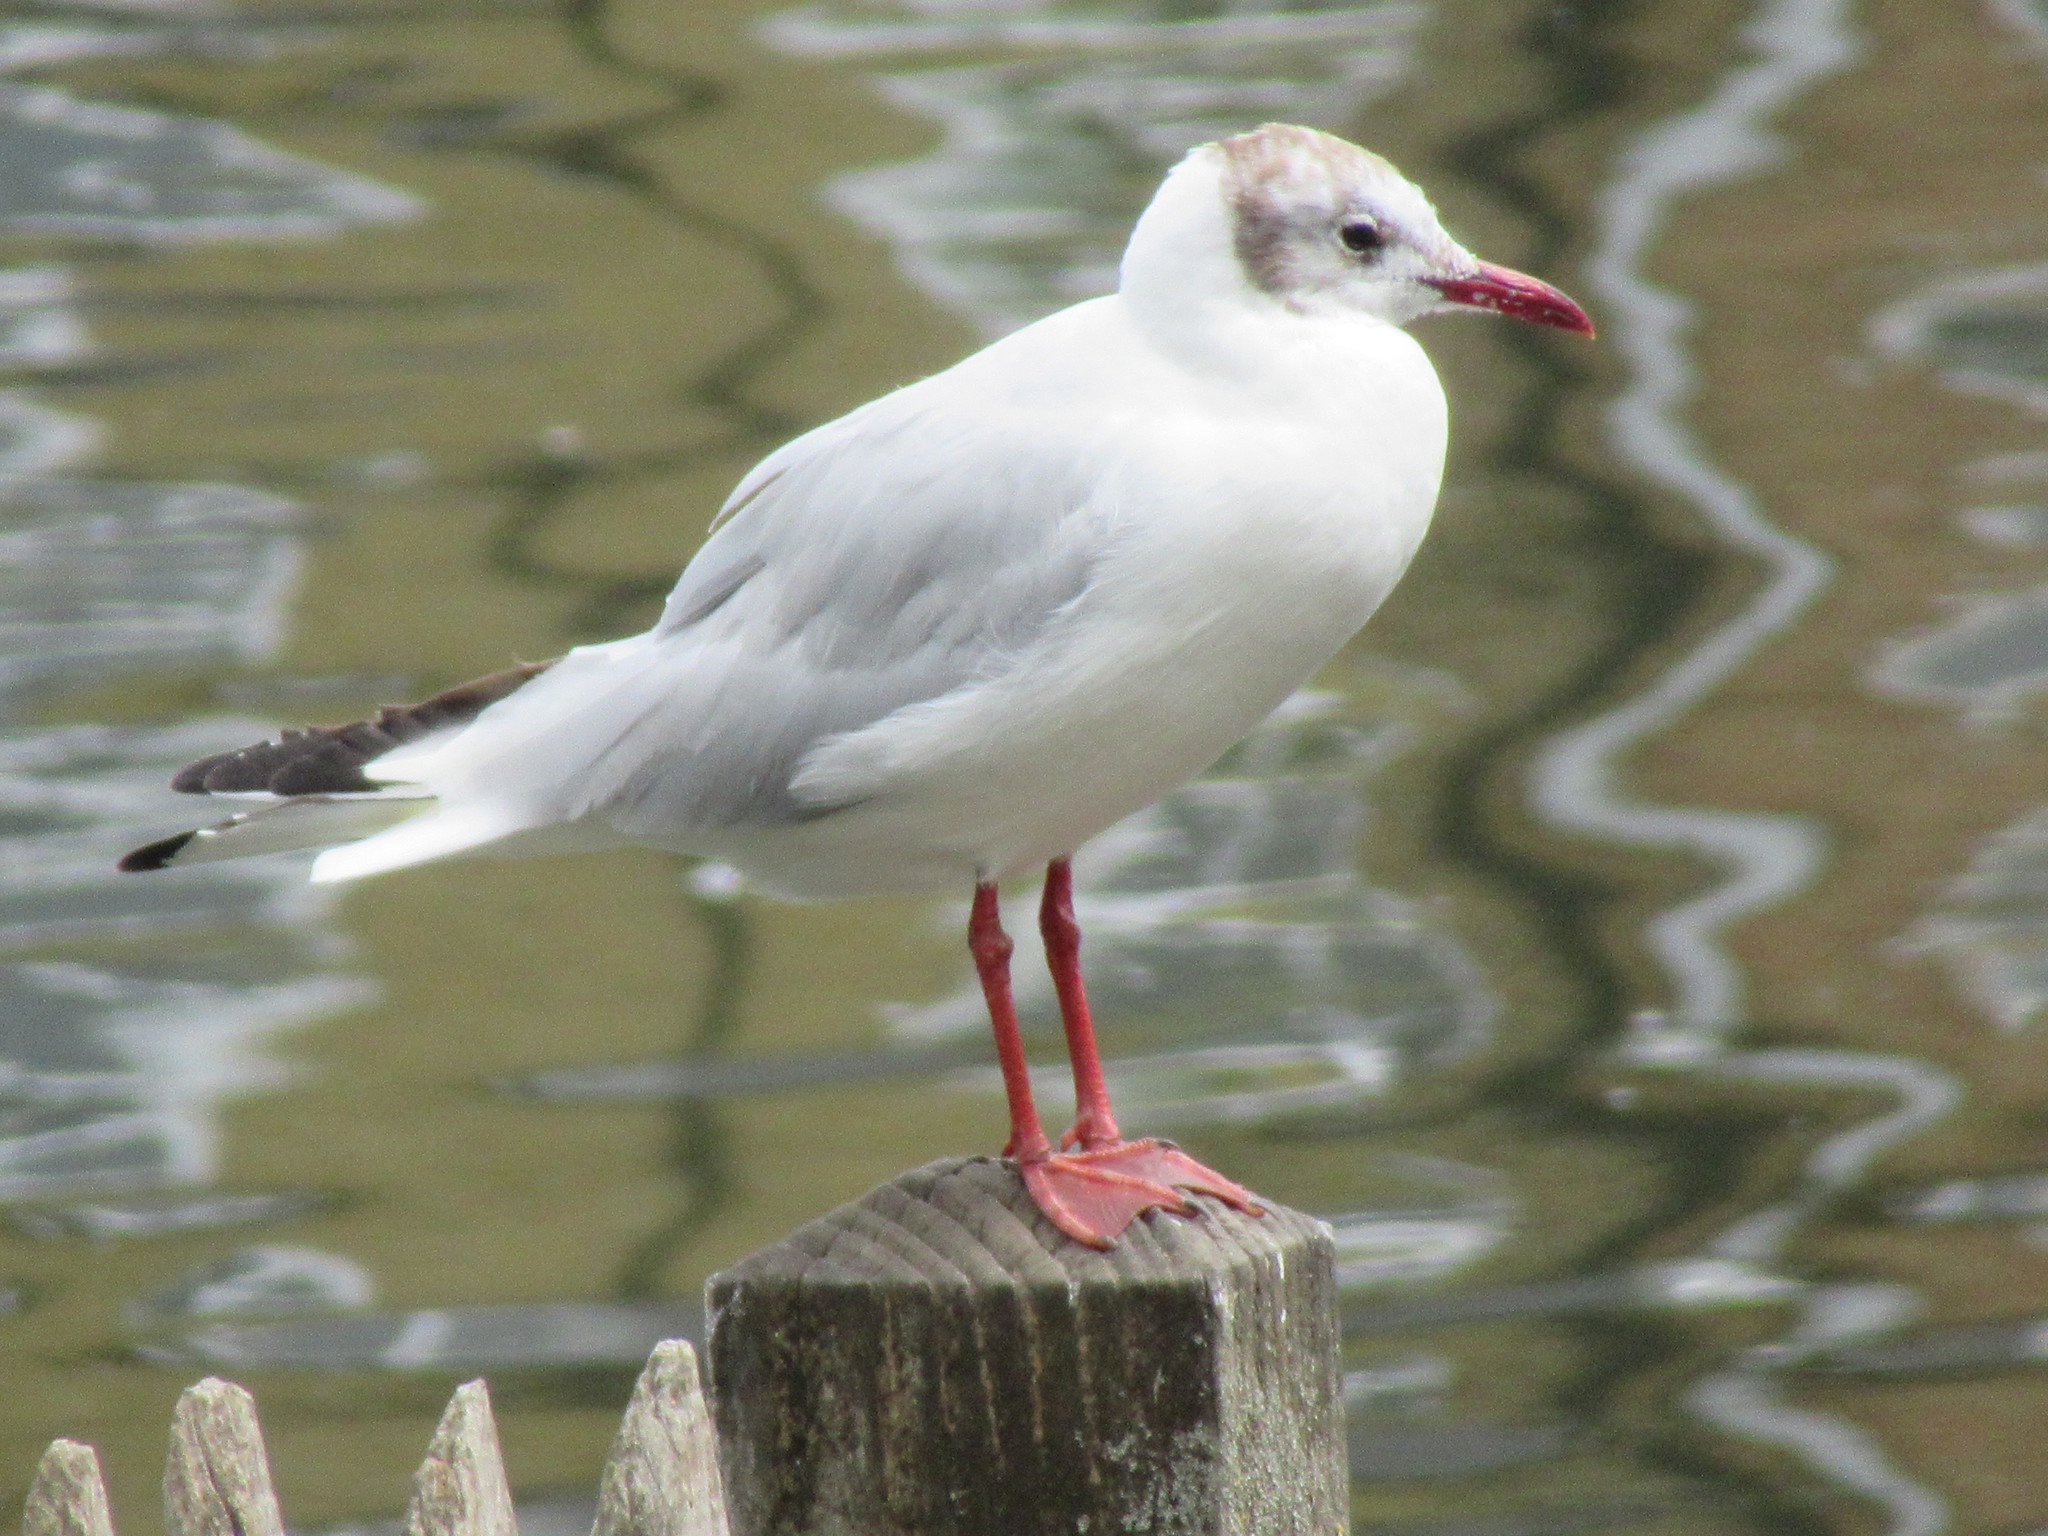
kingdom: Animalia
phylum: Chordata
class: Aves
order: Charadriiformes
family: Laridae
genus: Chroicocephalus
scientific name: Chroicocephalus ridibundus
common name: Black-headed gull
